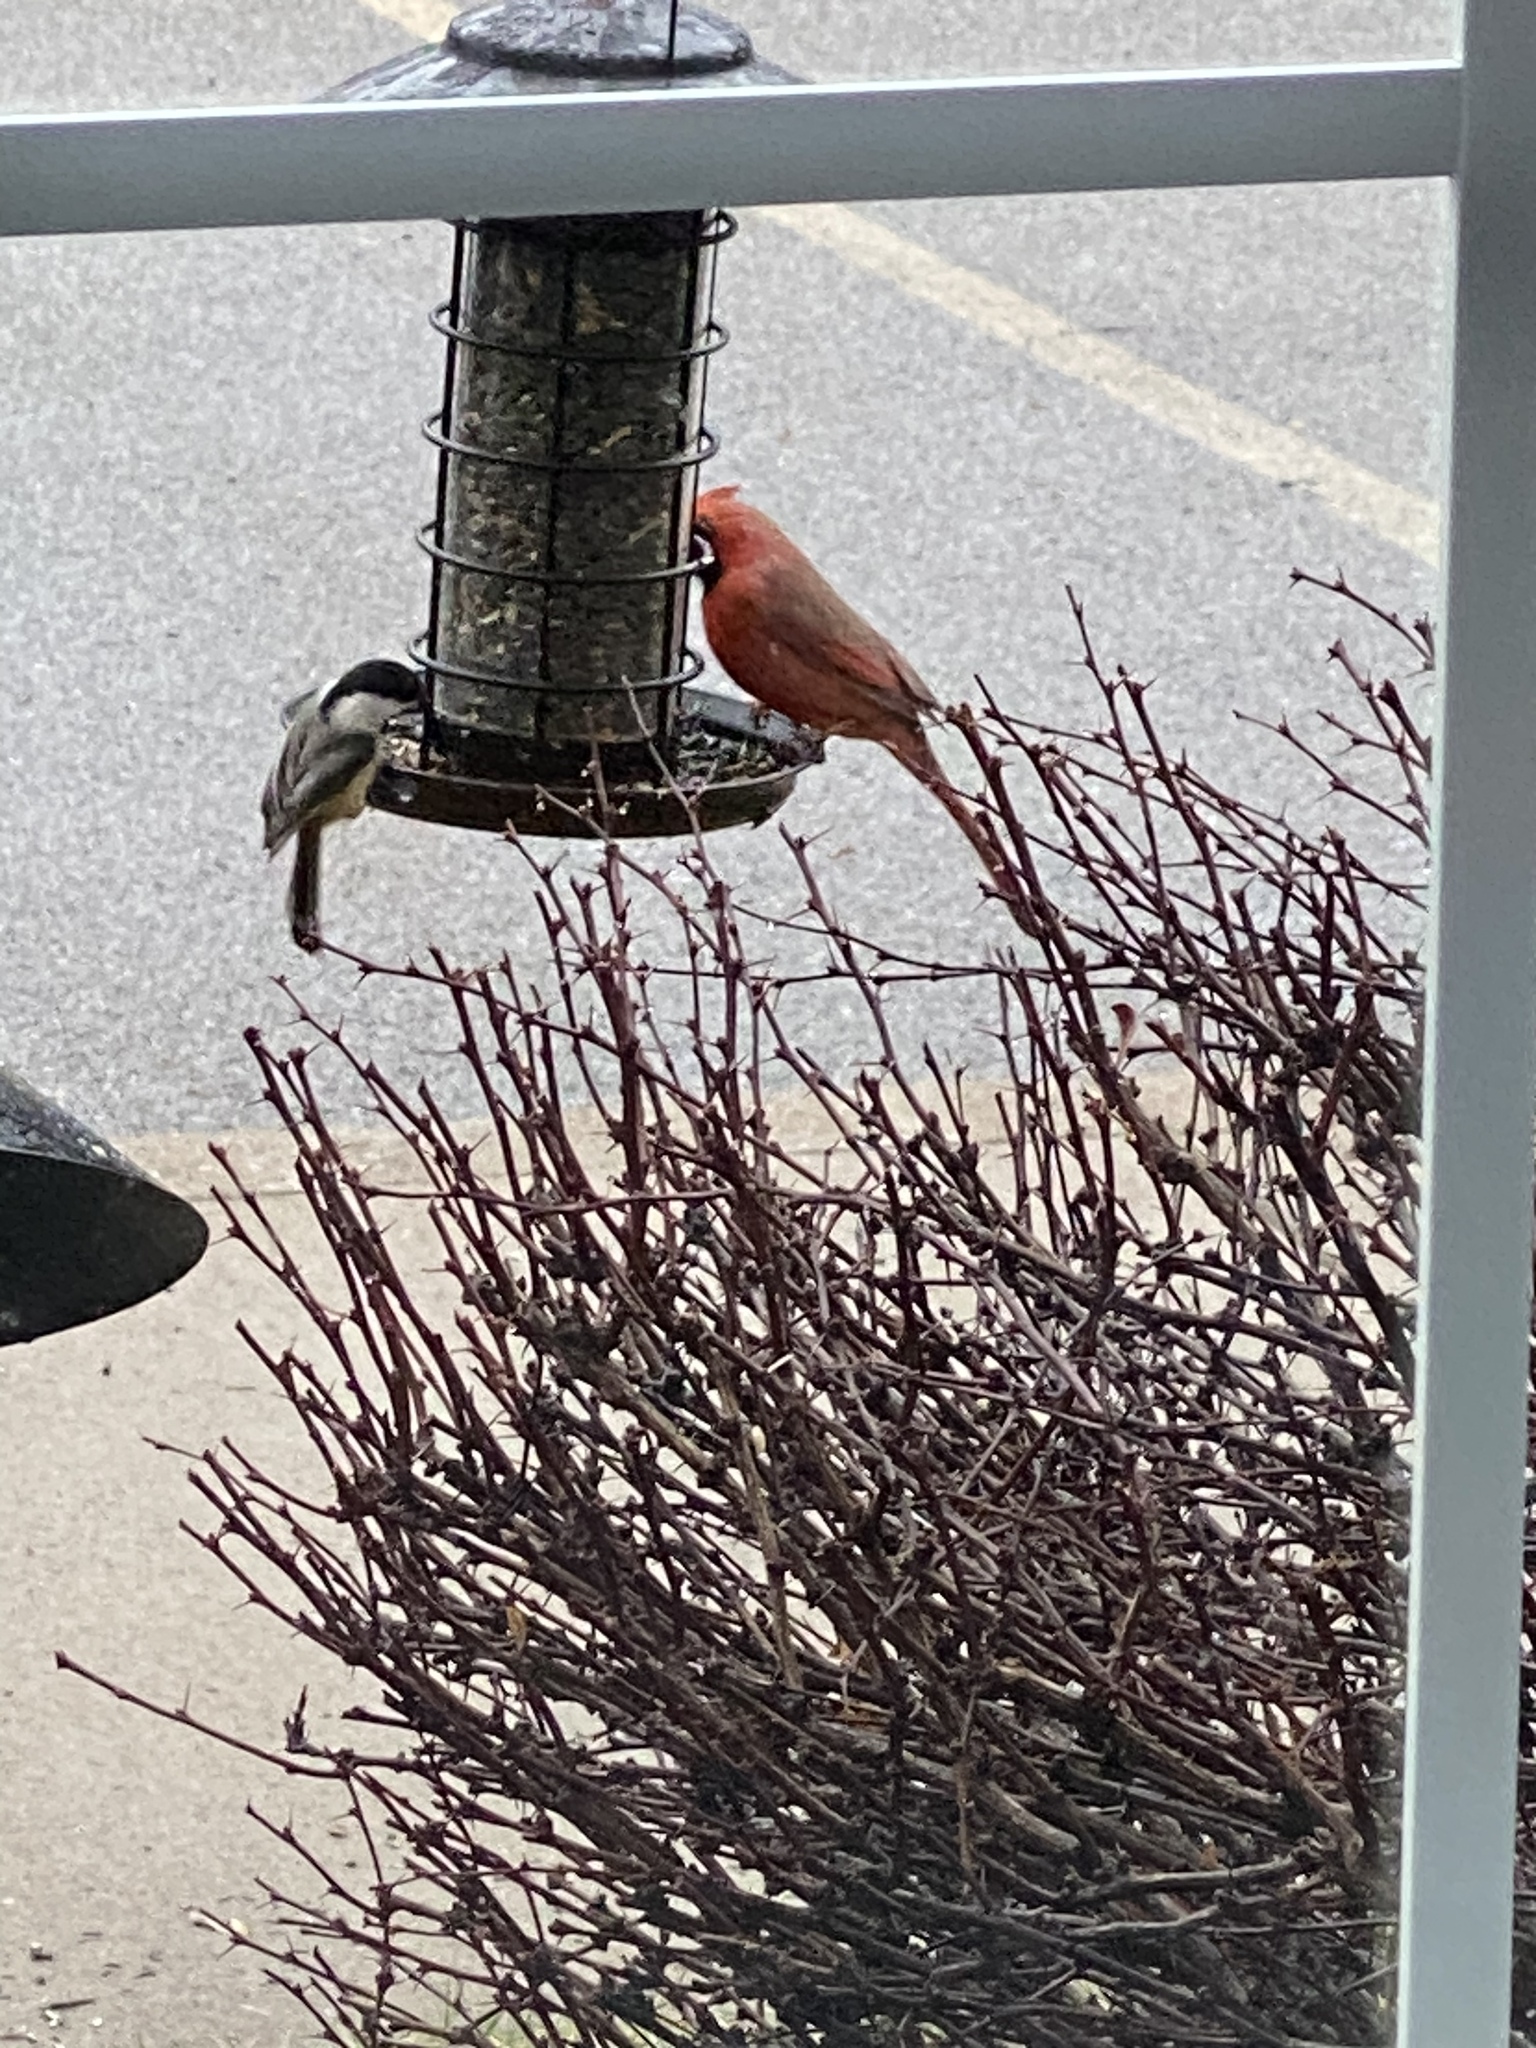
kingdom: Animalia
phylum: Chordata
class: Aves
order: Passeriformes
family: Paridae
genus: Poecile
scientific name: Poecile atricapillus
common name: Black-capped chickadee
